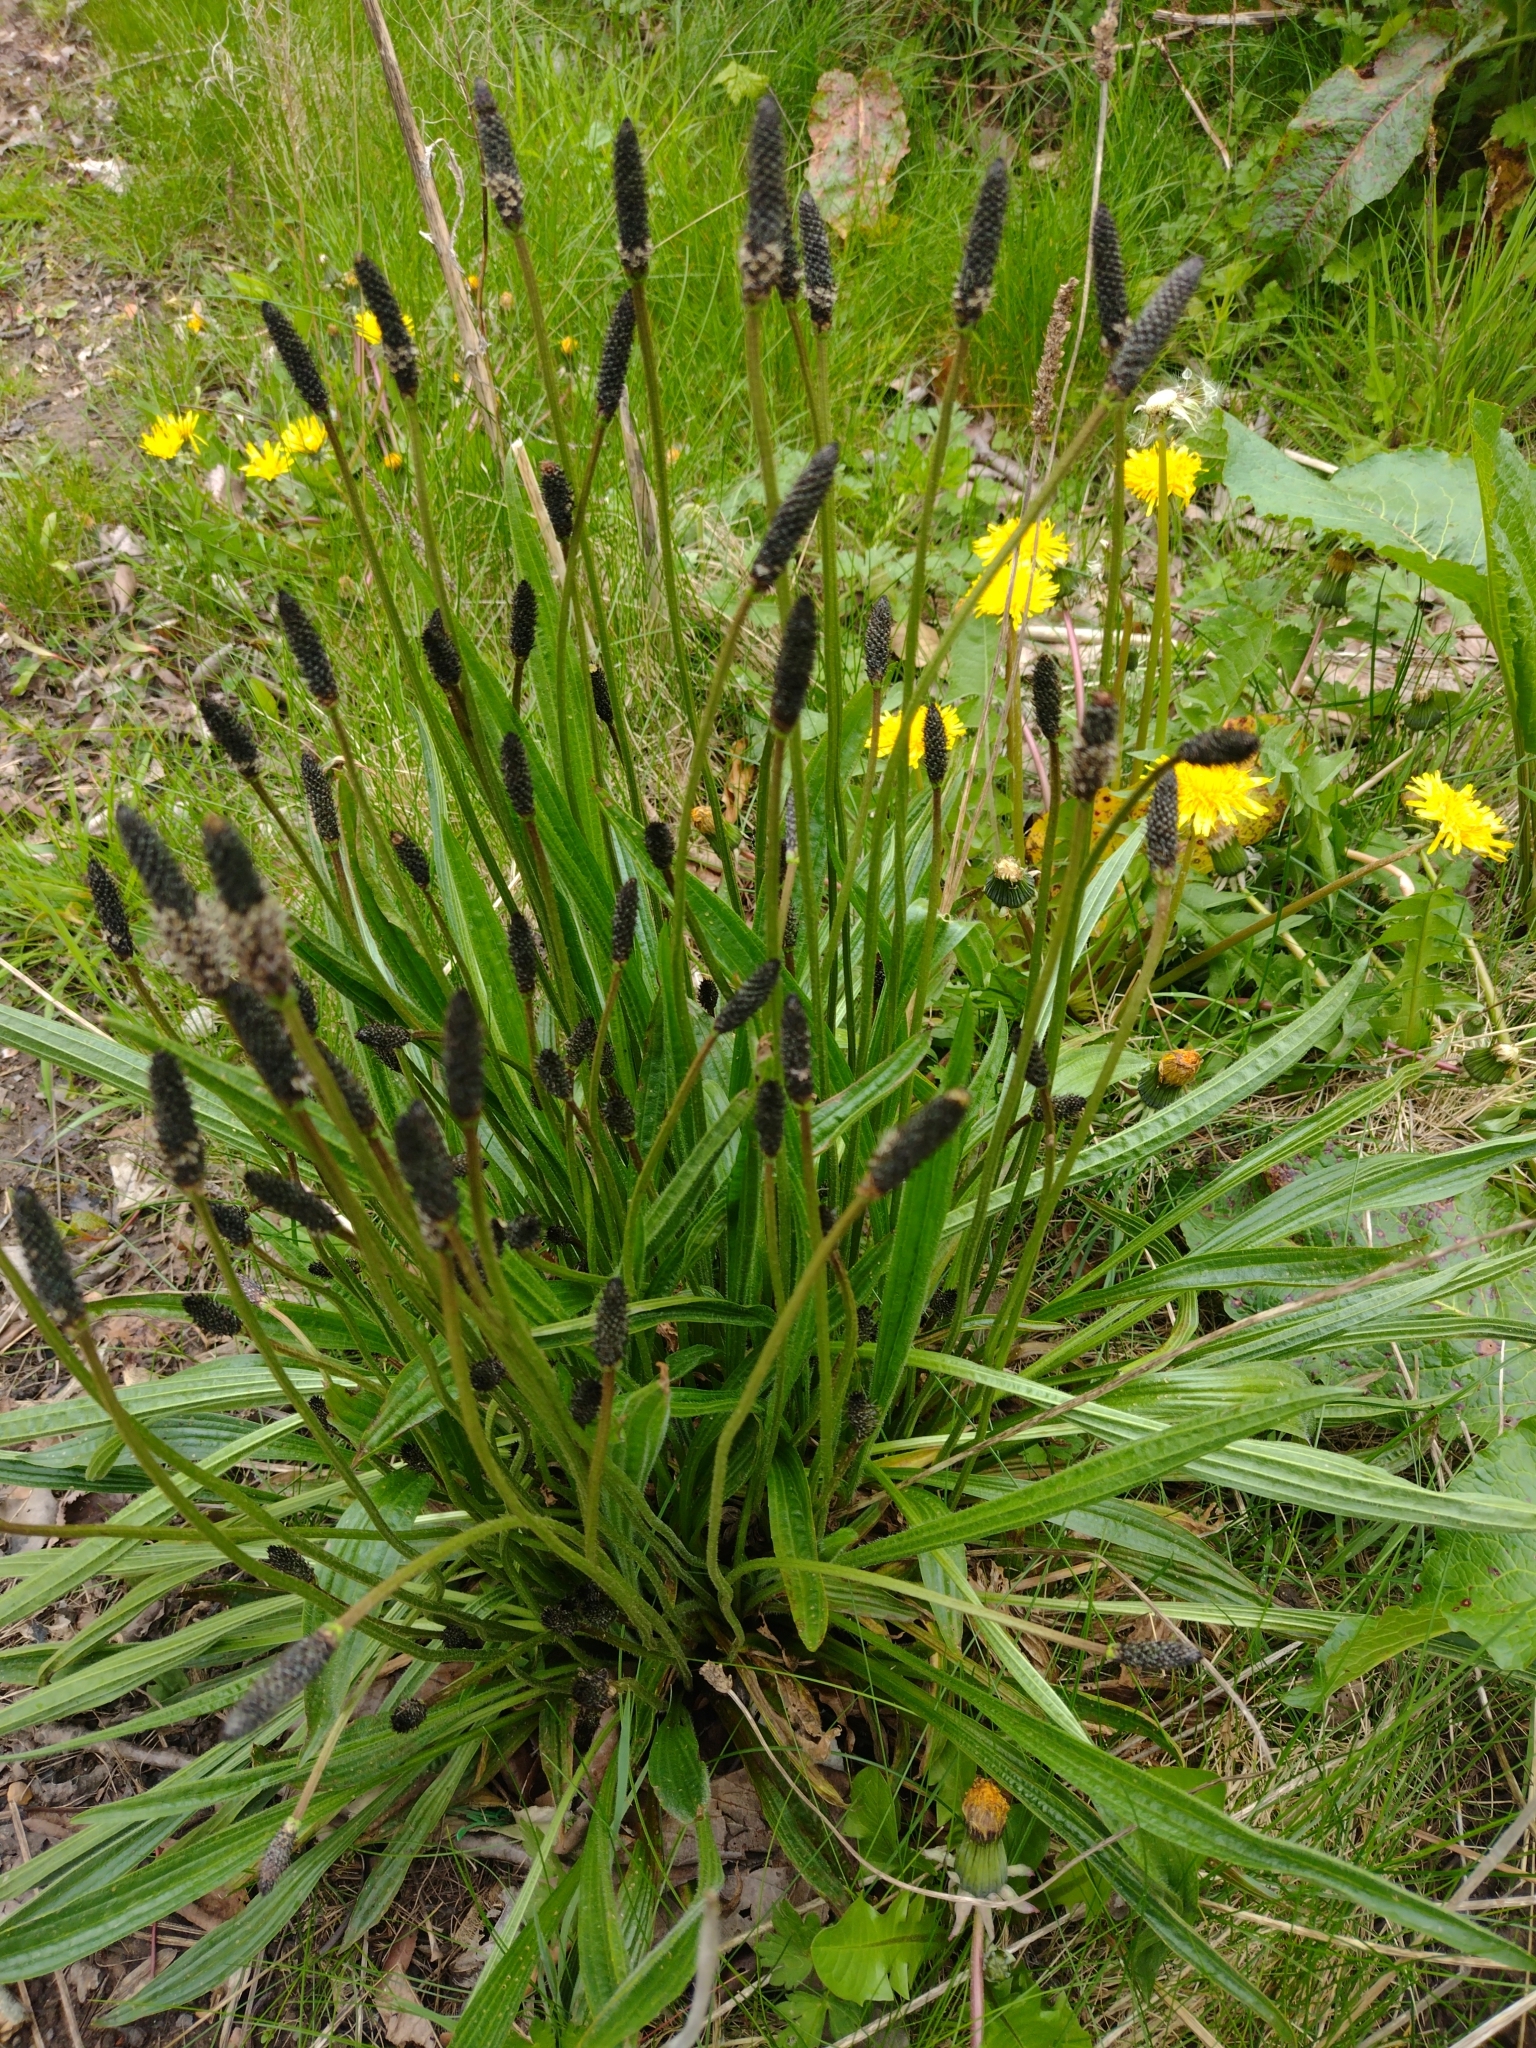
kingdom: Plantae
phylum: Tracheophyta
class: Magnoliopsida
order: Lamiales
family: Plantaginaceae
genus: Plantago
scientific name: Plantago lanceolata
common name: Ribwort plantain
